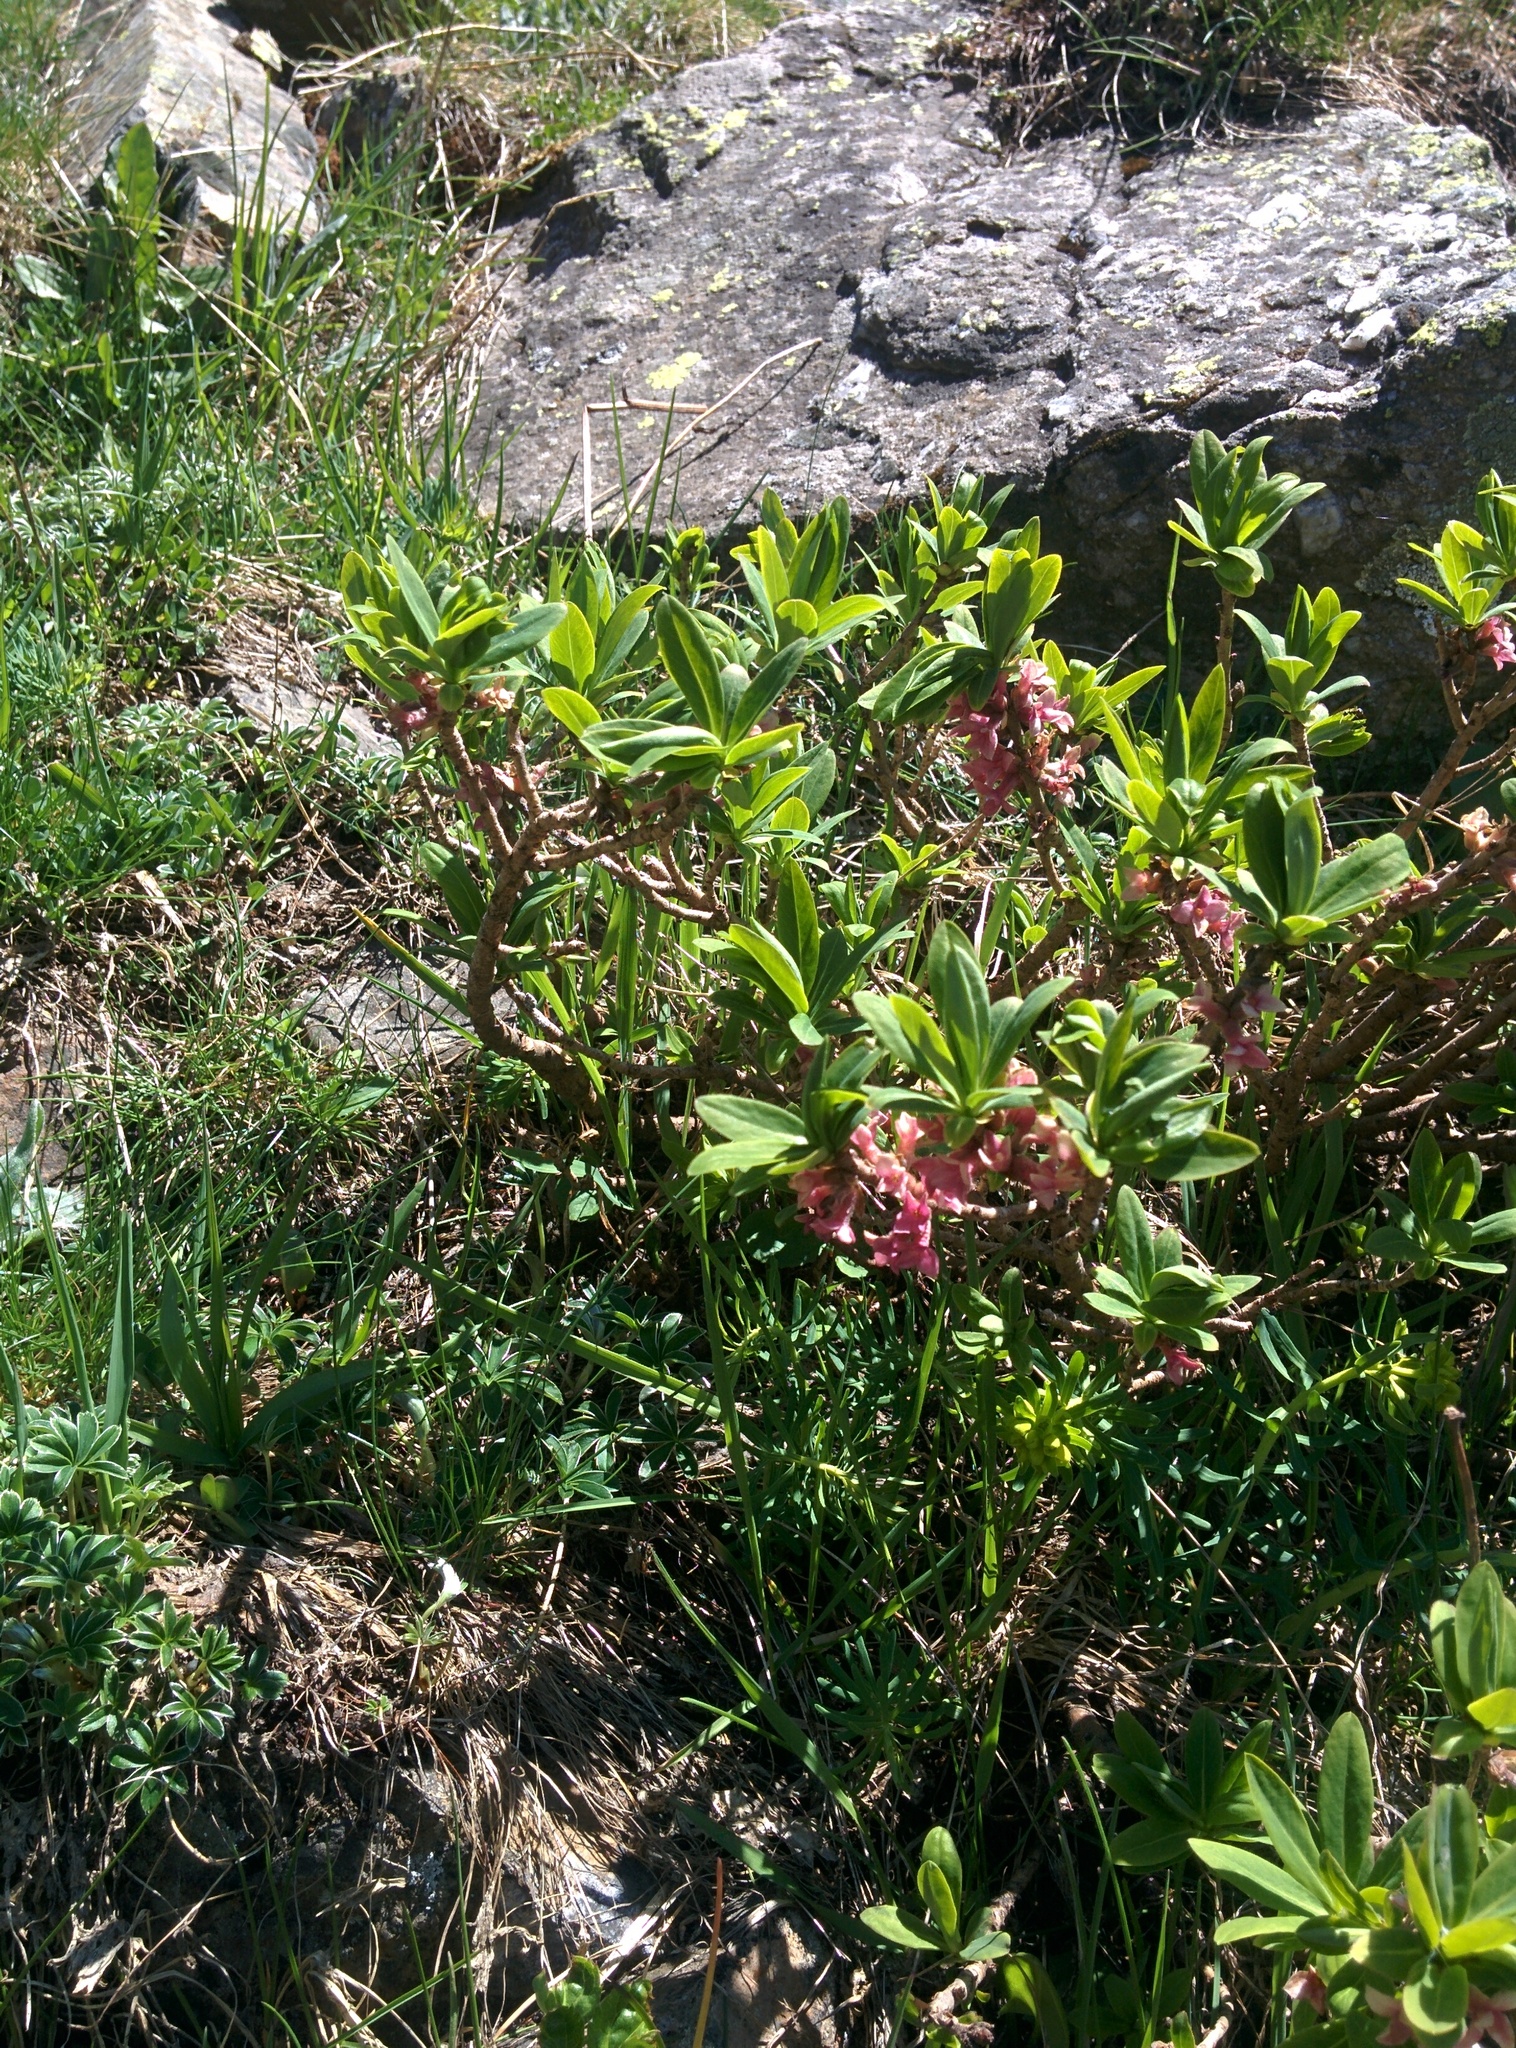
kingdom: Plantae
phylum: Tracheophyta
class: Magnoliopsida
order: Malvales
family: Thymelaeaceae
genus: Daphne
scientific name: Daphne mezereum
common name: Mezereon
